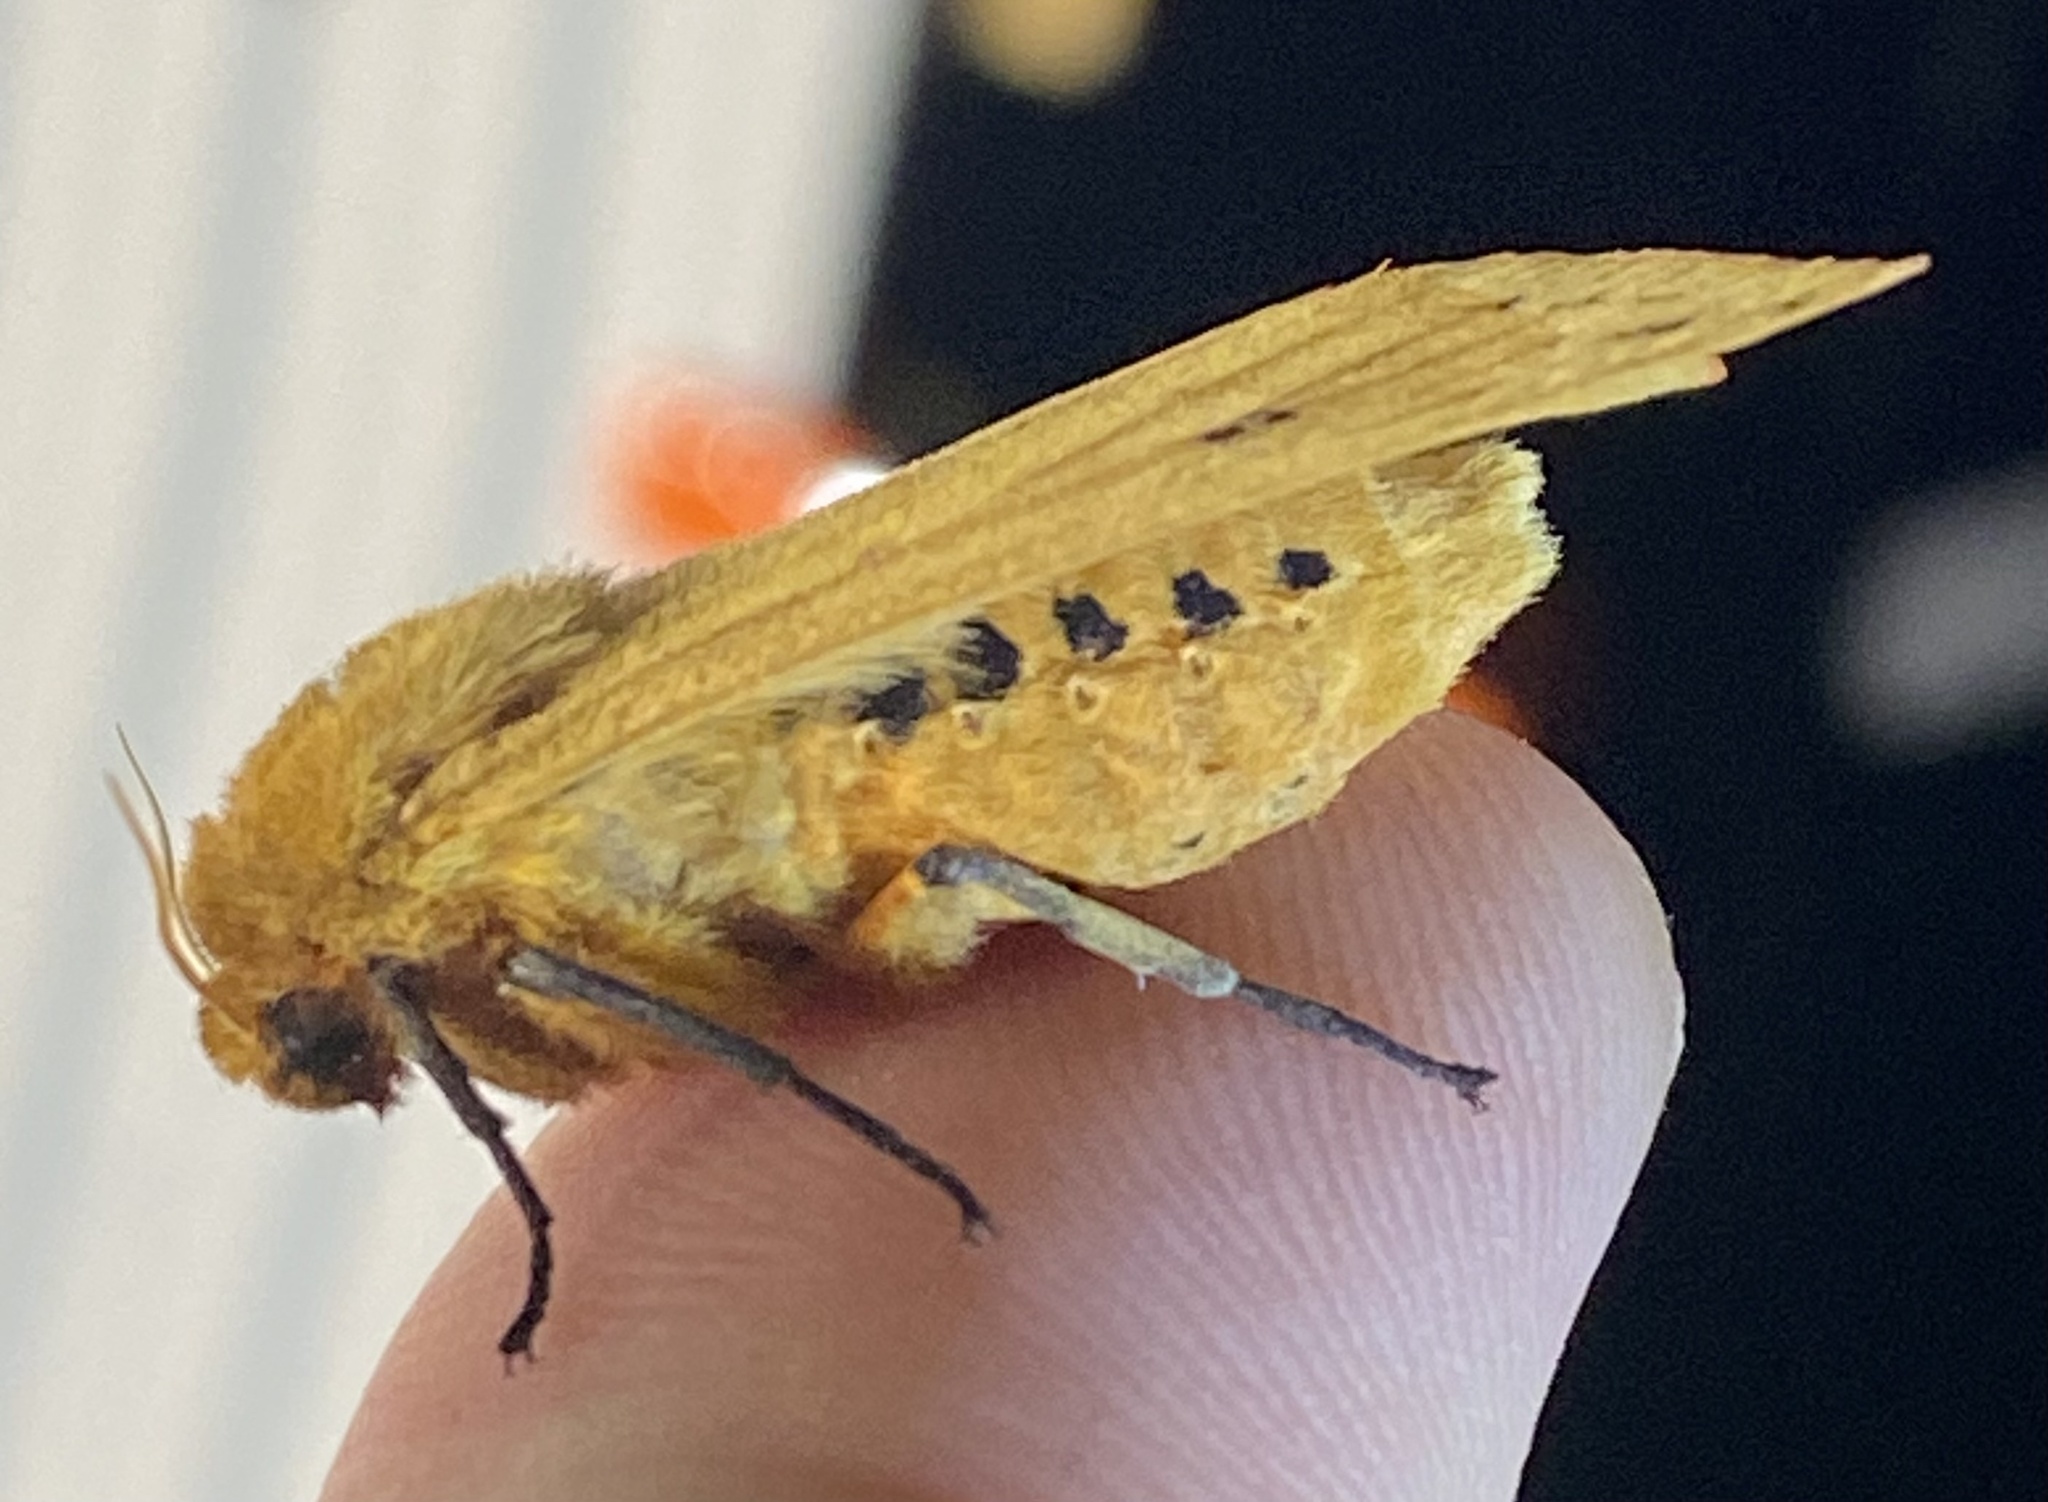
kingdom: Animalia
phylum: Arthropoda
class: Insecta
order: Lepidoptera
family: Erebidae
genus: Pyrrharctia
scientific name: Pyrrharctia isabella
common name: Isabella tiger moth
